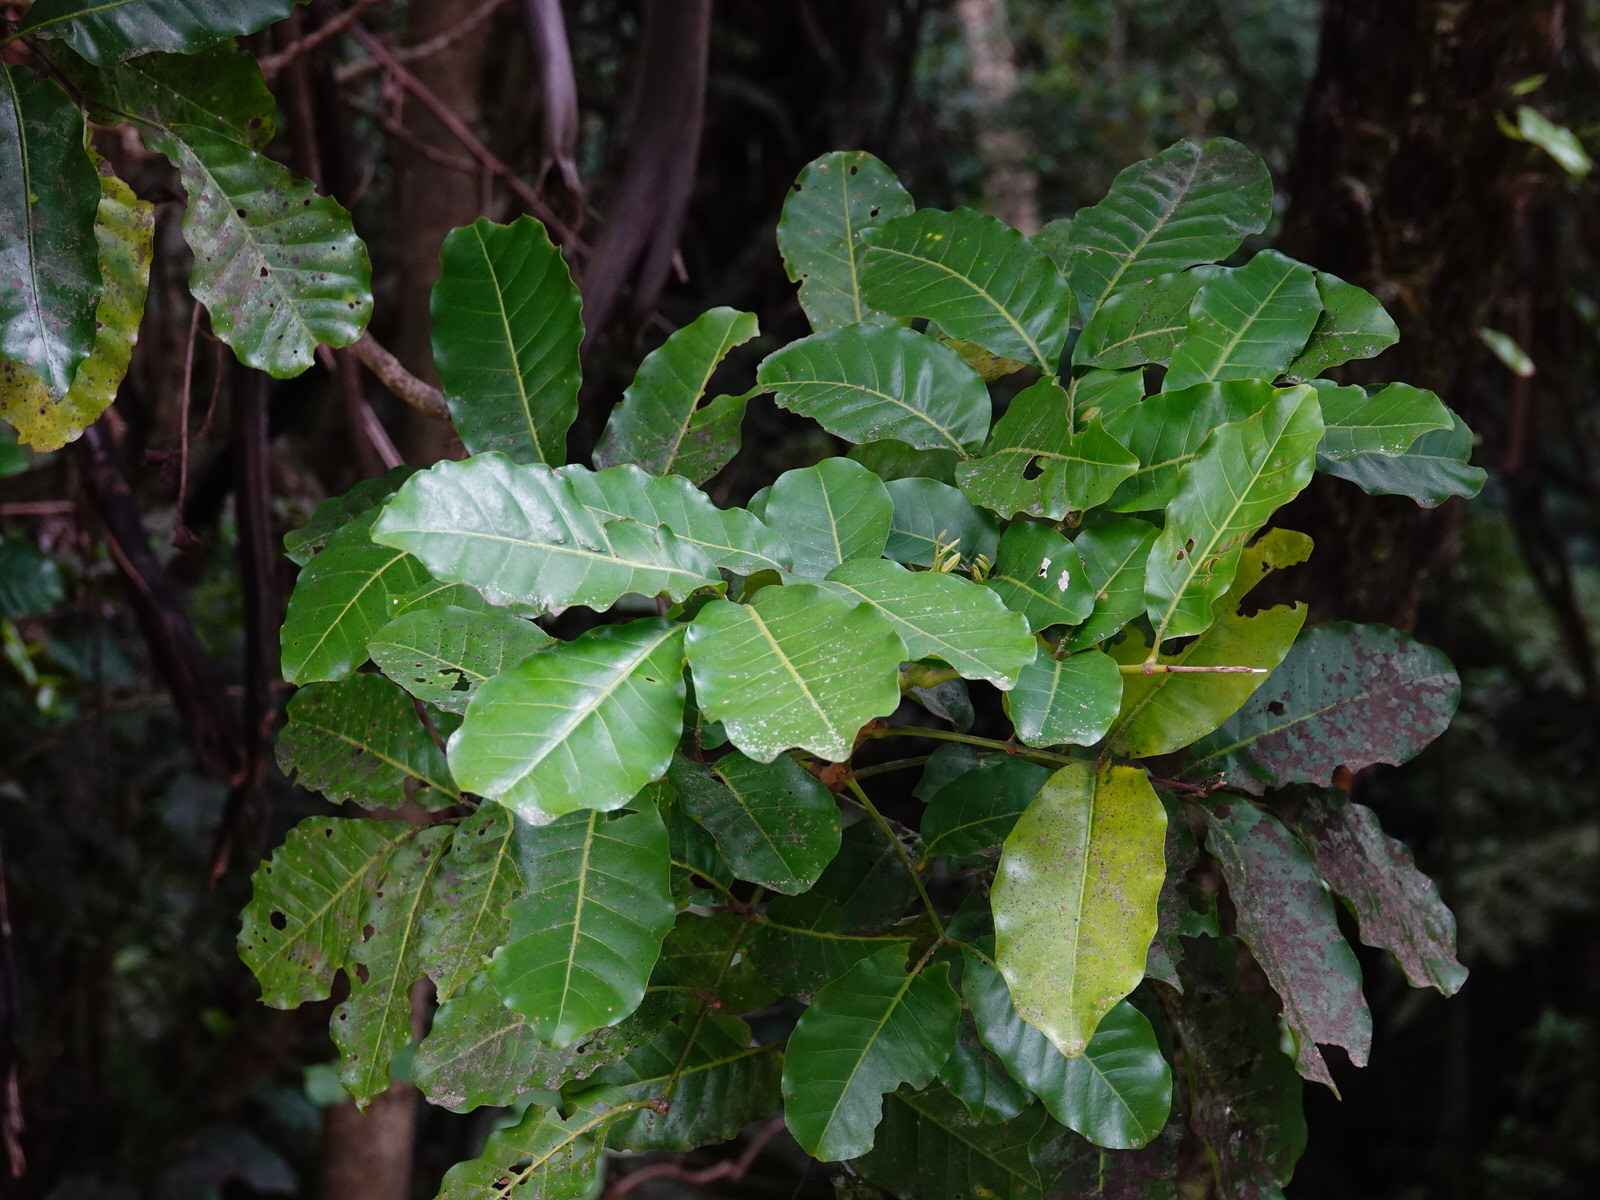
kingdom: Plantae
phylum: Tracheophyta
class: Magnoliopsida
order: Sapindales
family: Meliaceae
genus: Didymocheton
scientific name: Didymocheton spectabilis
